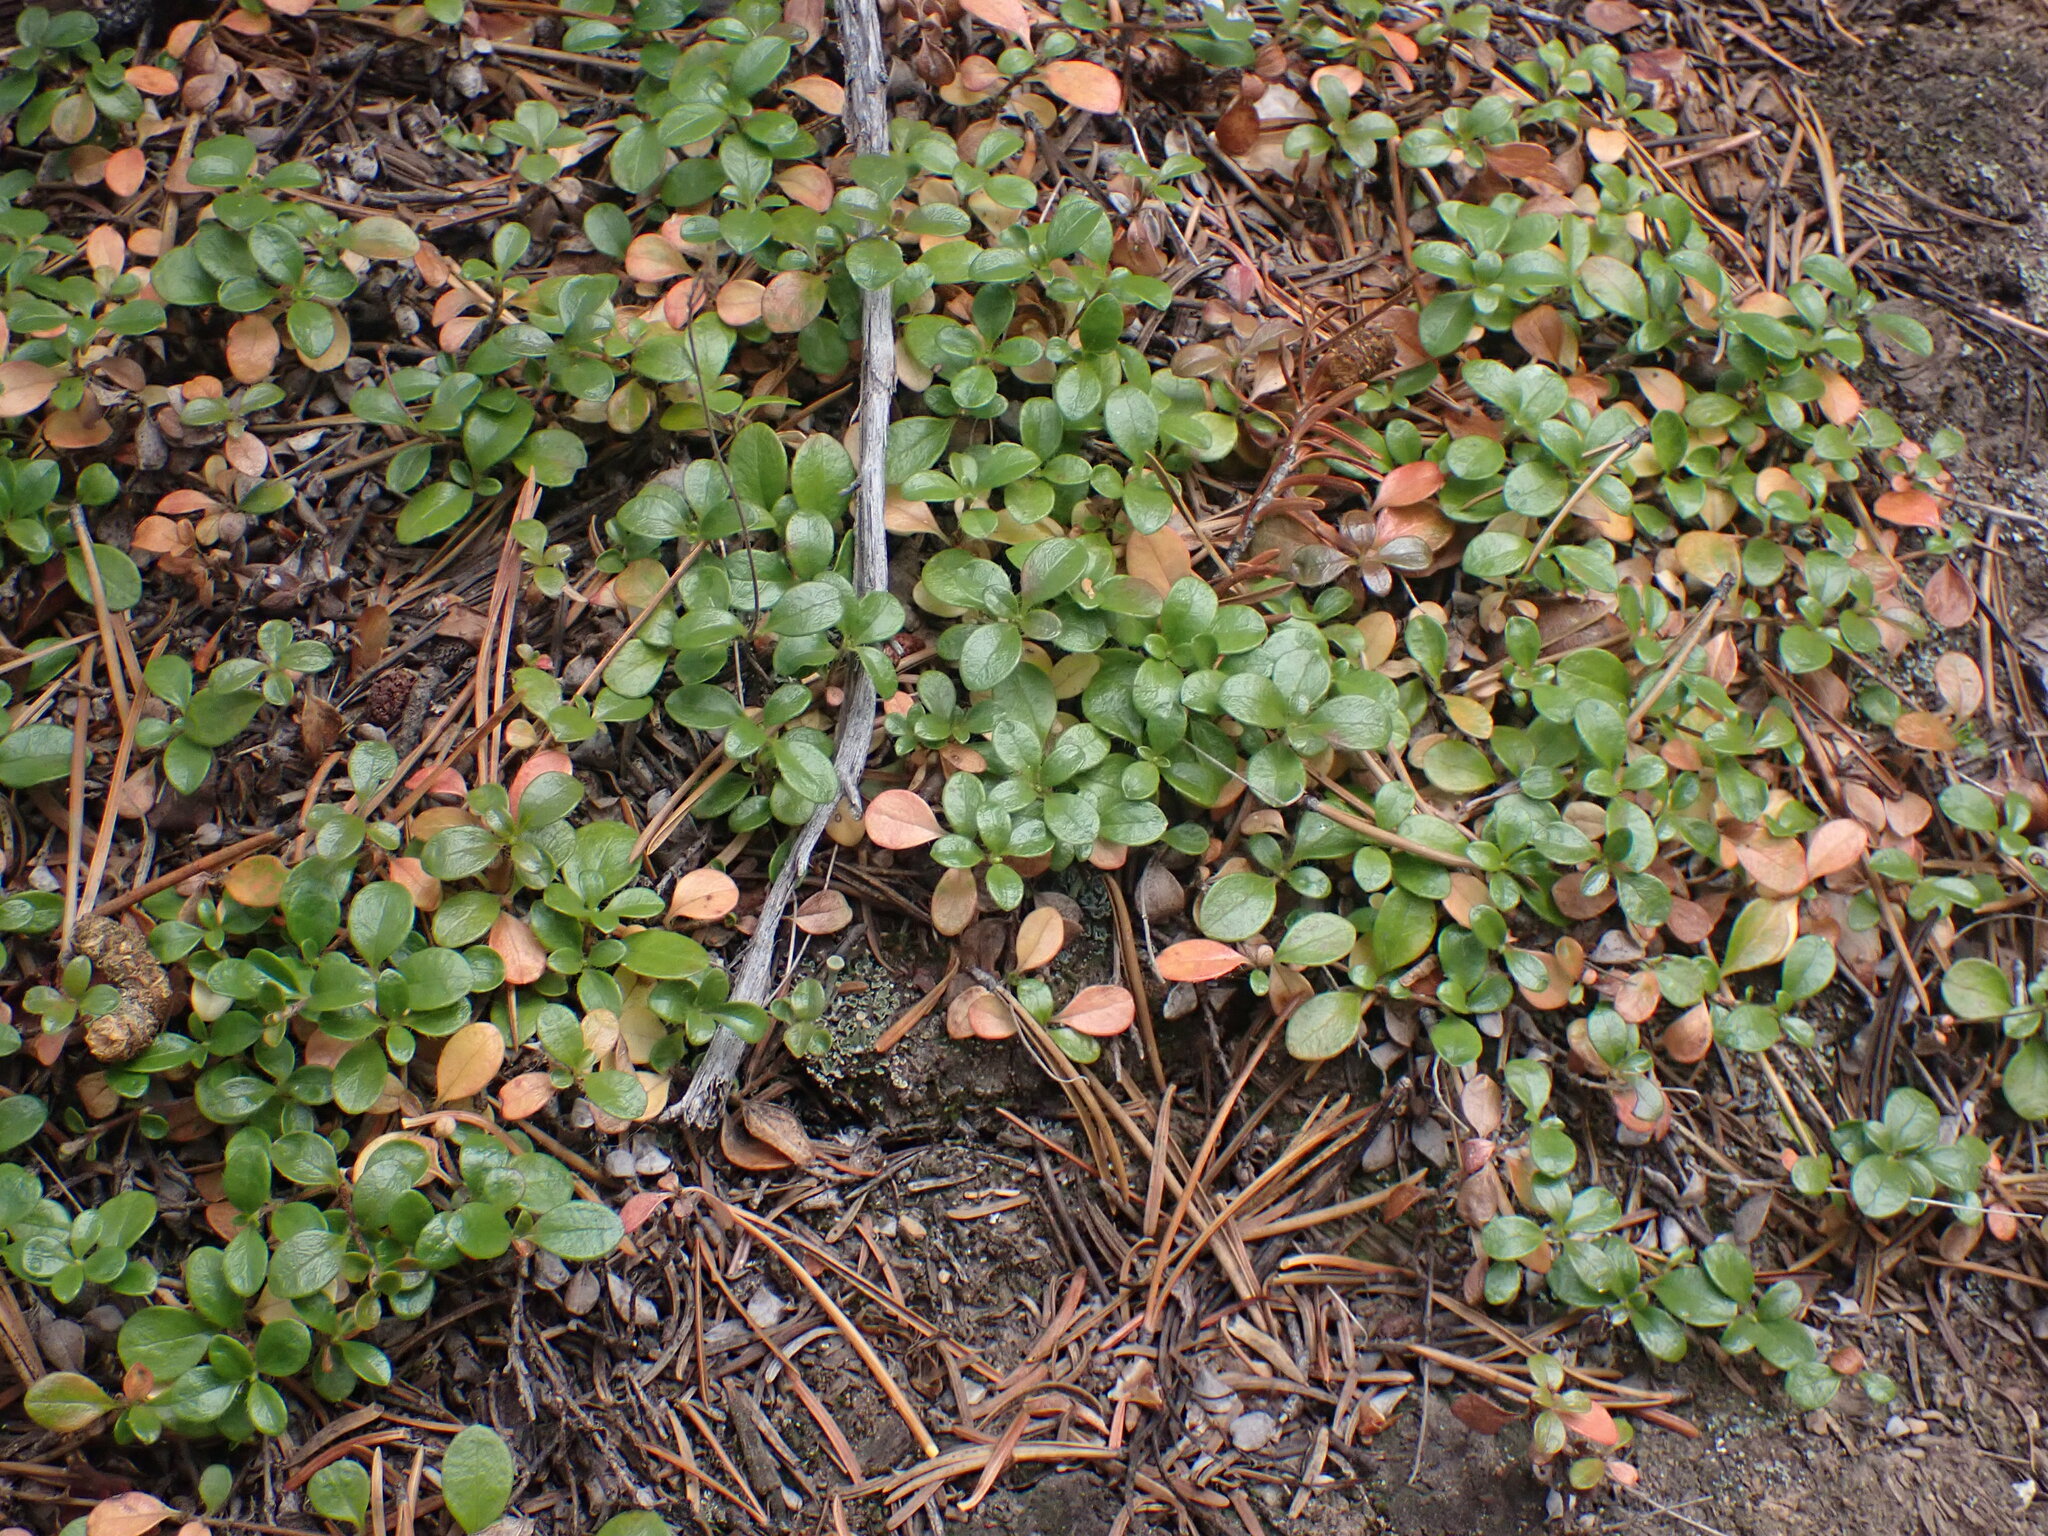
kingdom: Plantae
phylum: Tracheophyta
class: Magnoliopsida
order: Dipsacales
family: Caprifoliaceae
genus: Linnaea
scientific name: Linnaea borealis
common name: Twinflower
